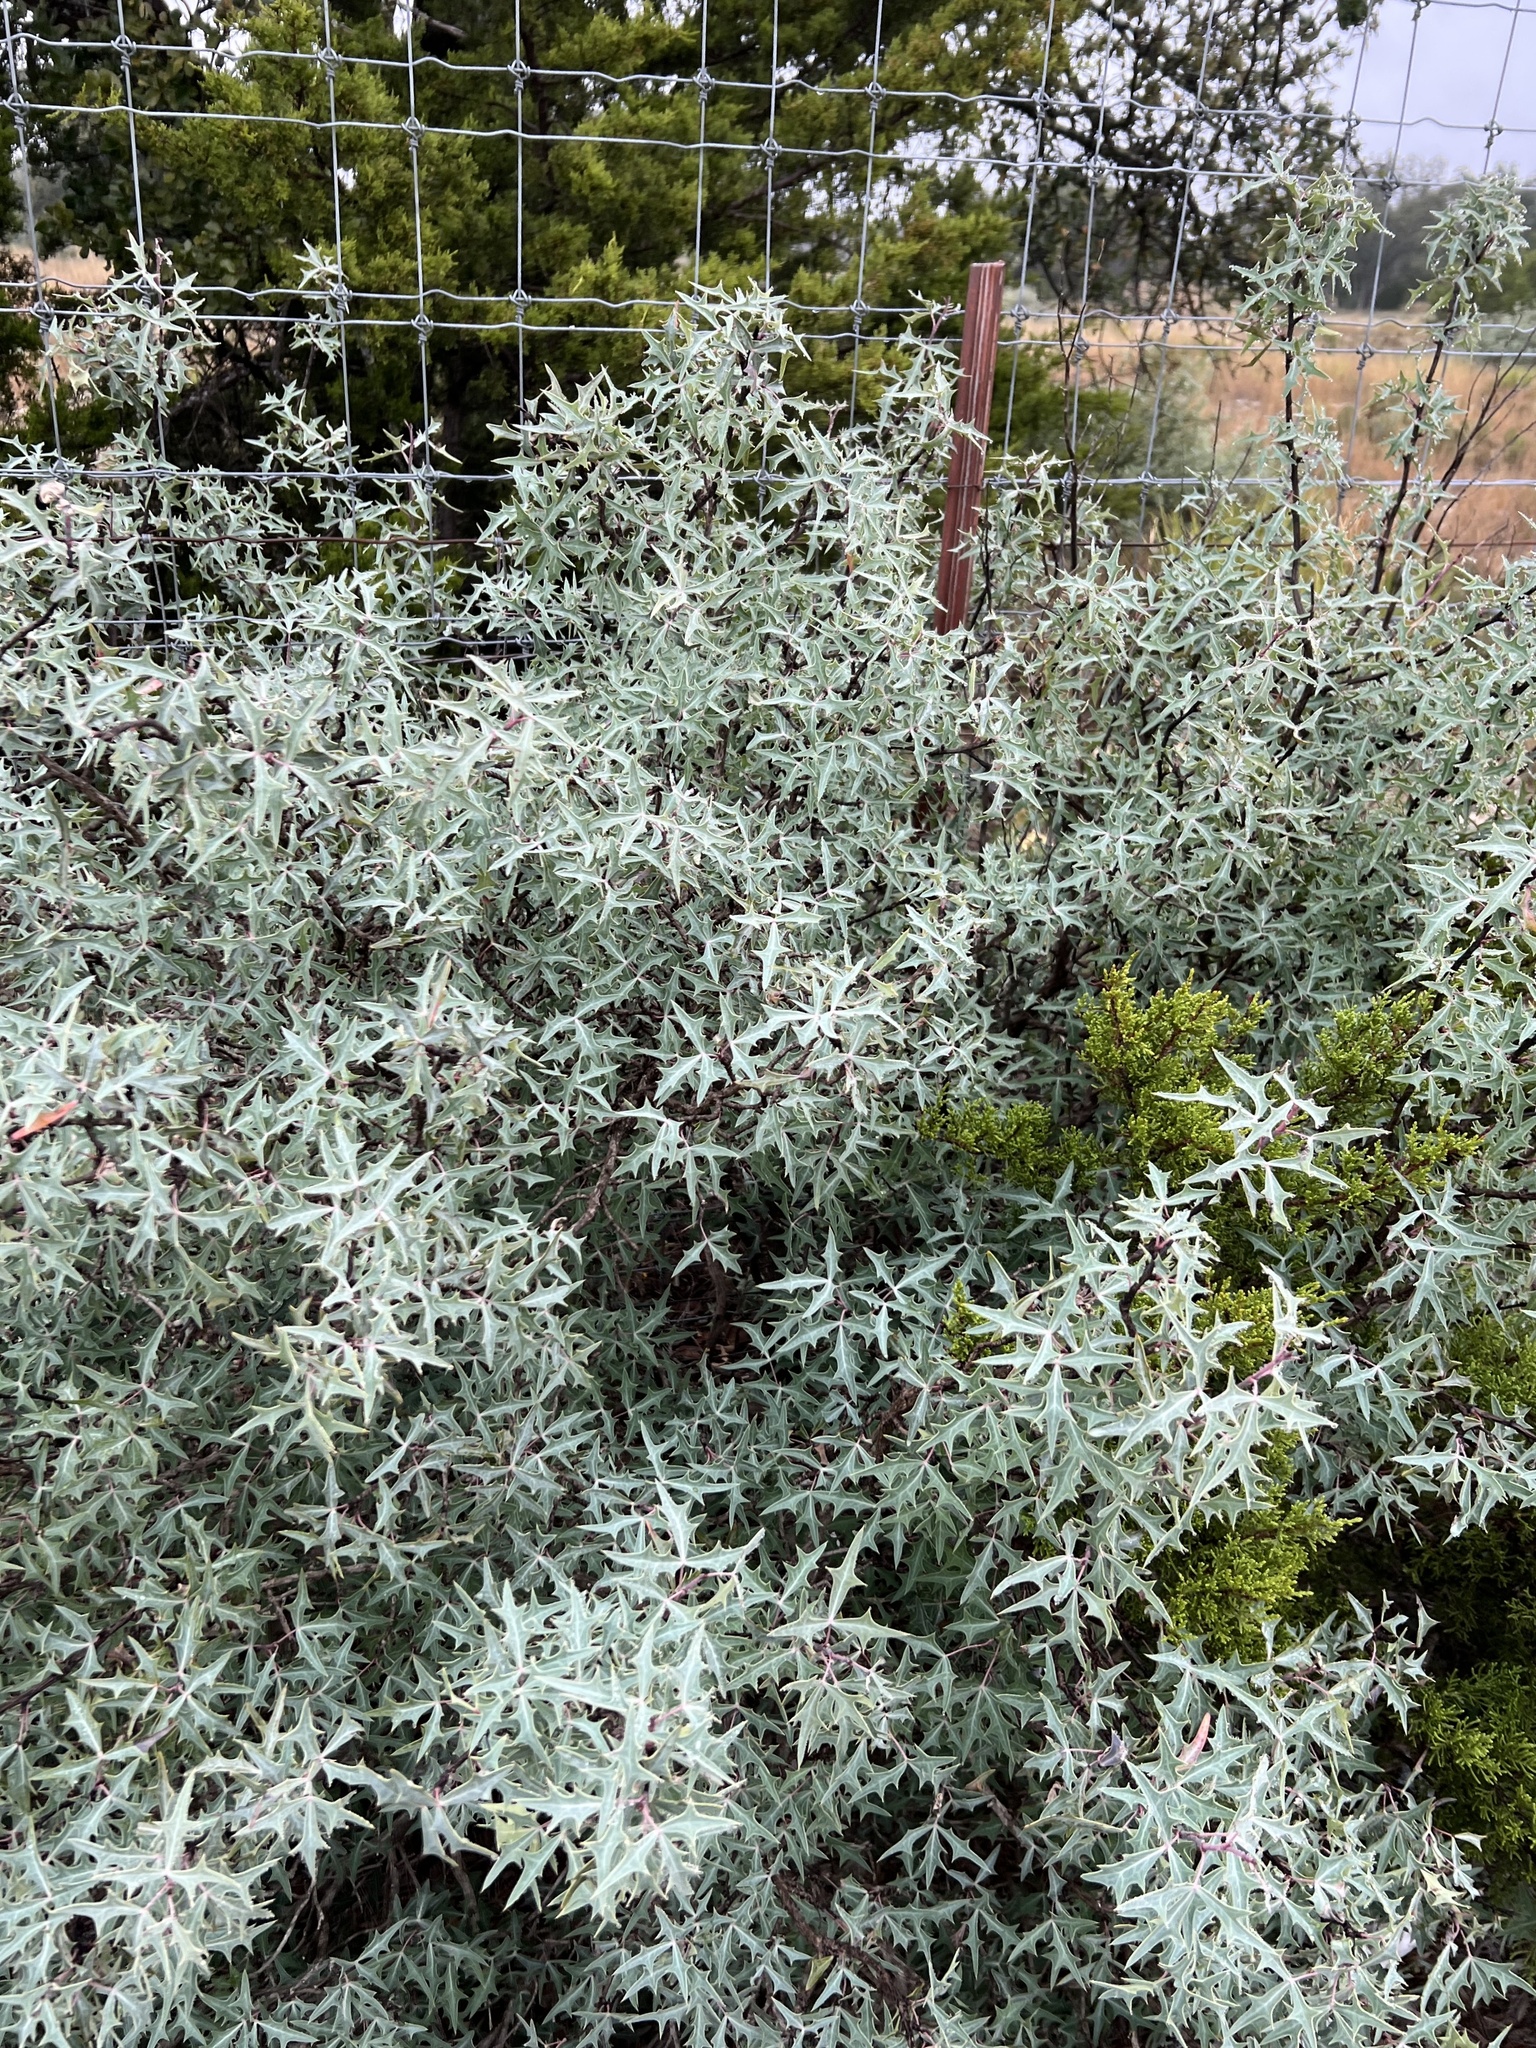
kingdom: Plantae
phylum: Tracheophyta
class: Magnoliopsida
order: Ranunculales
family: Berberidaceae
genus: Alloberberis
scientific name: Alloberberis trifoliolata
